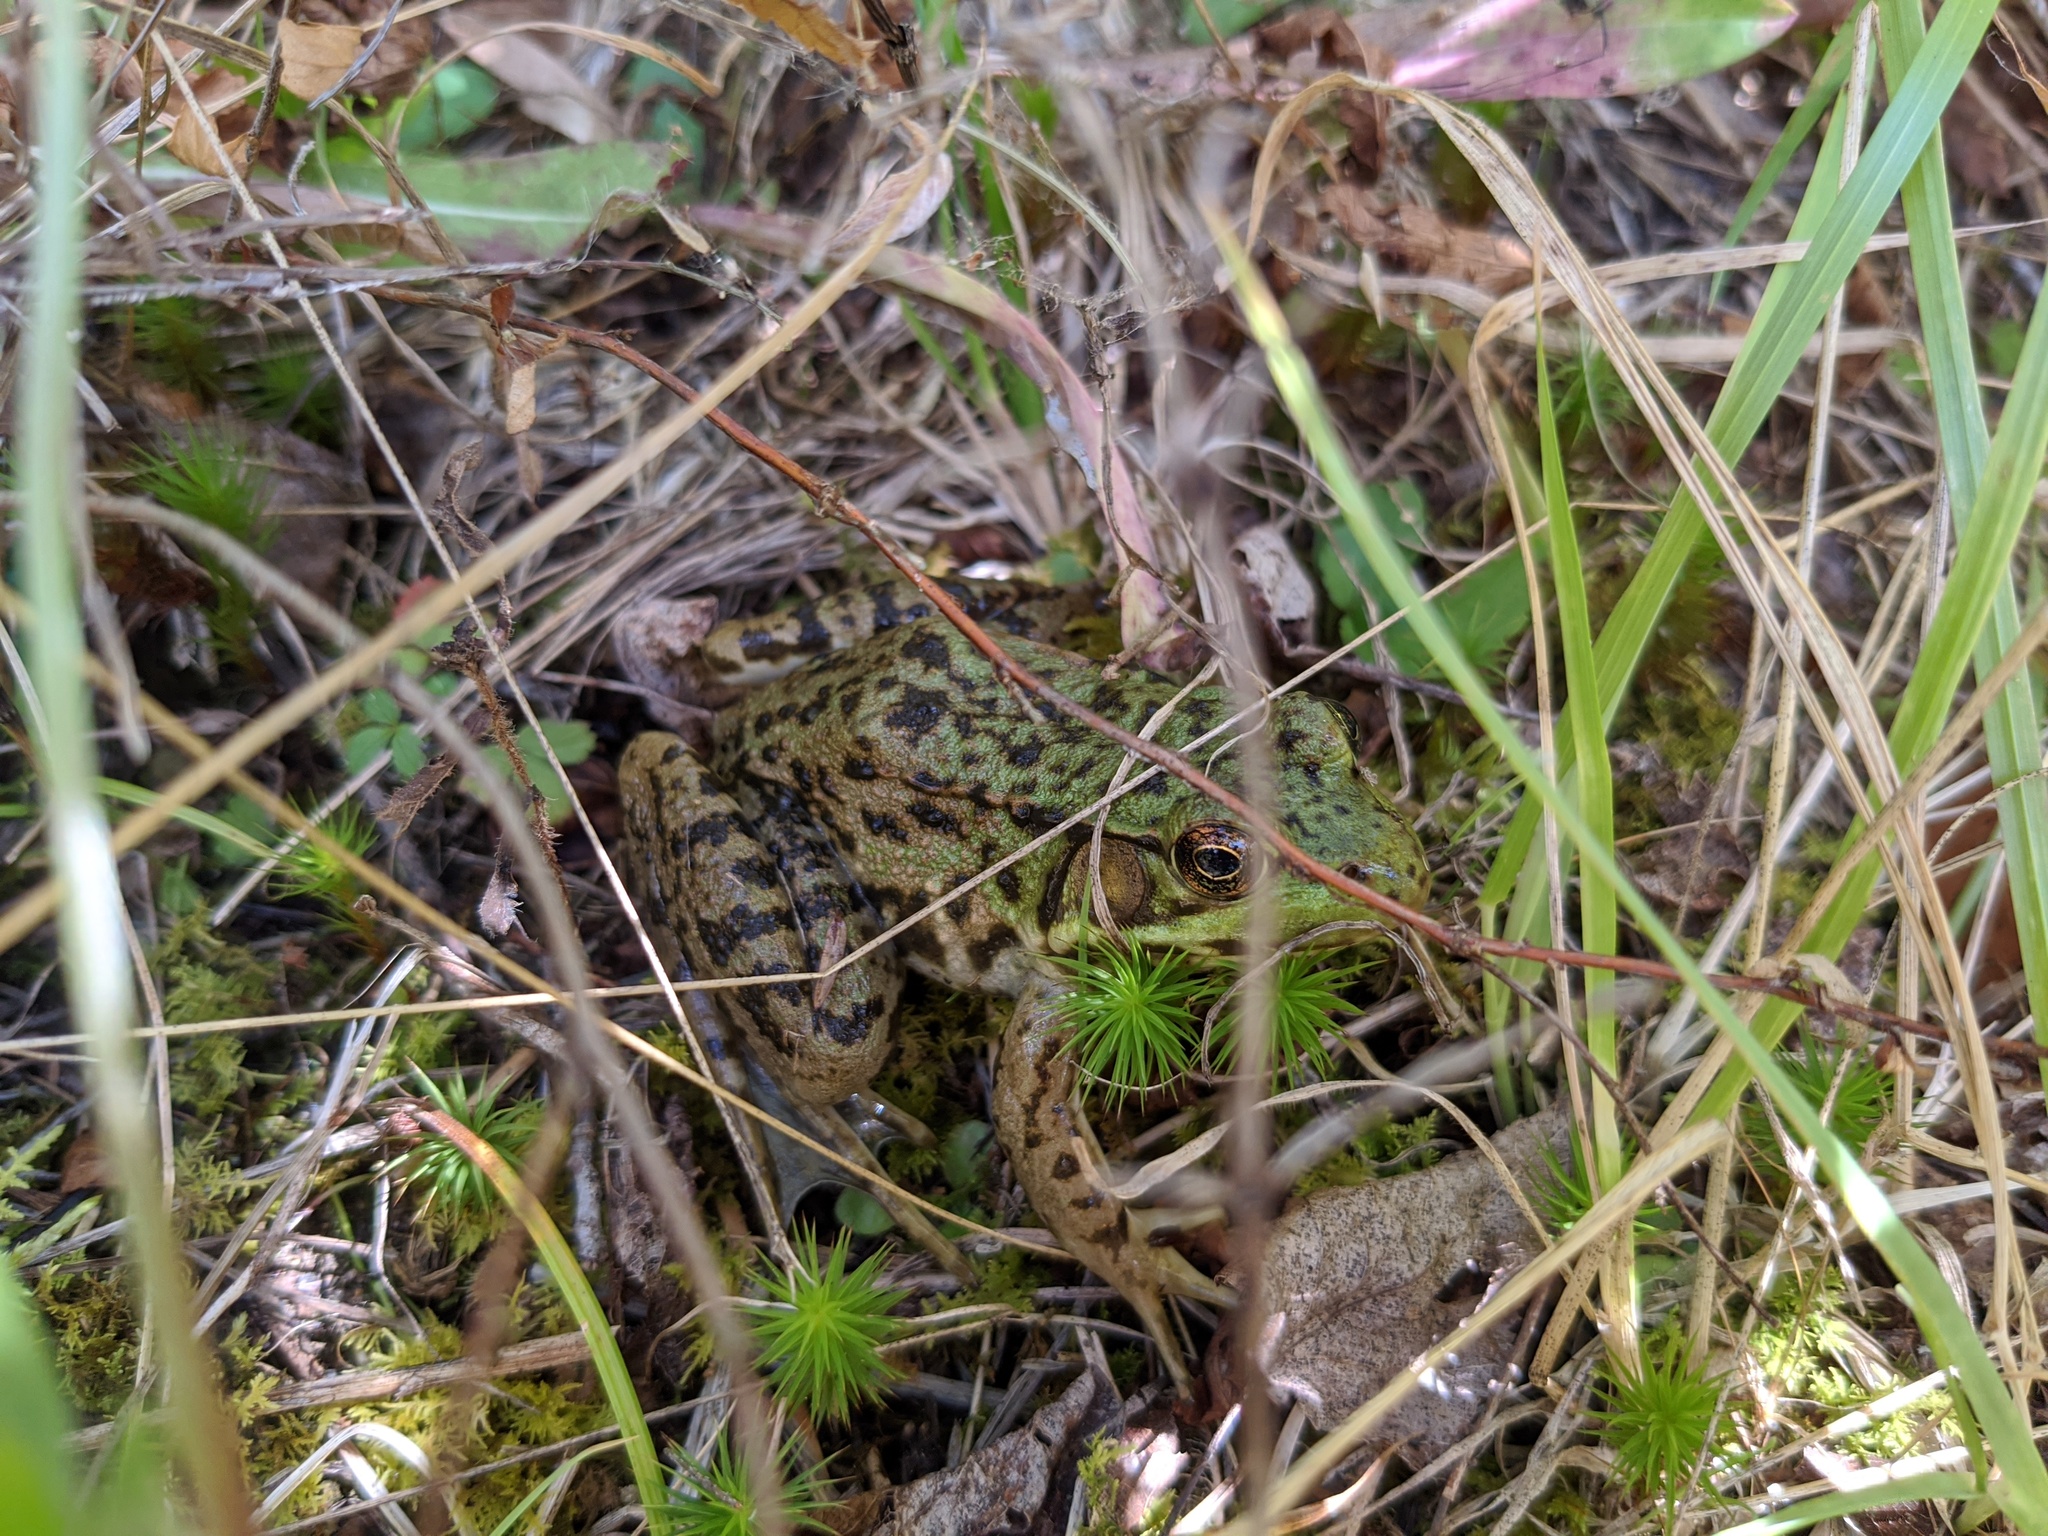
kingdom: Animalia
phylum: Chordata
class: Amphibia
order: Anura
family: Ranidae
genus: Lithobates
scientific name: Lithobates clamitans
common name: Green frog
